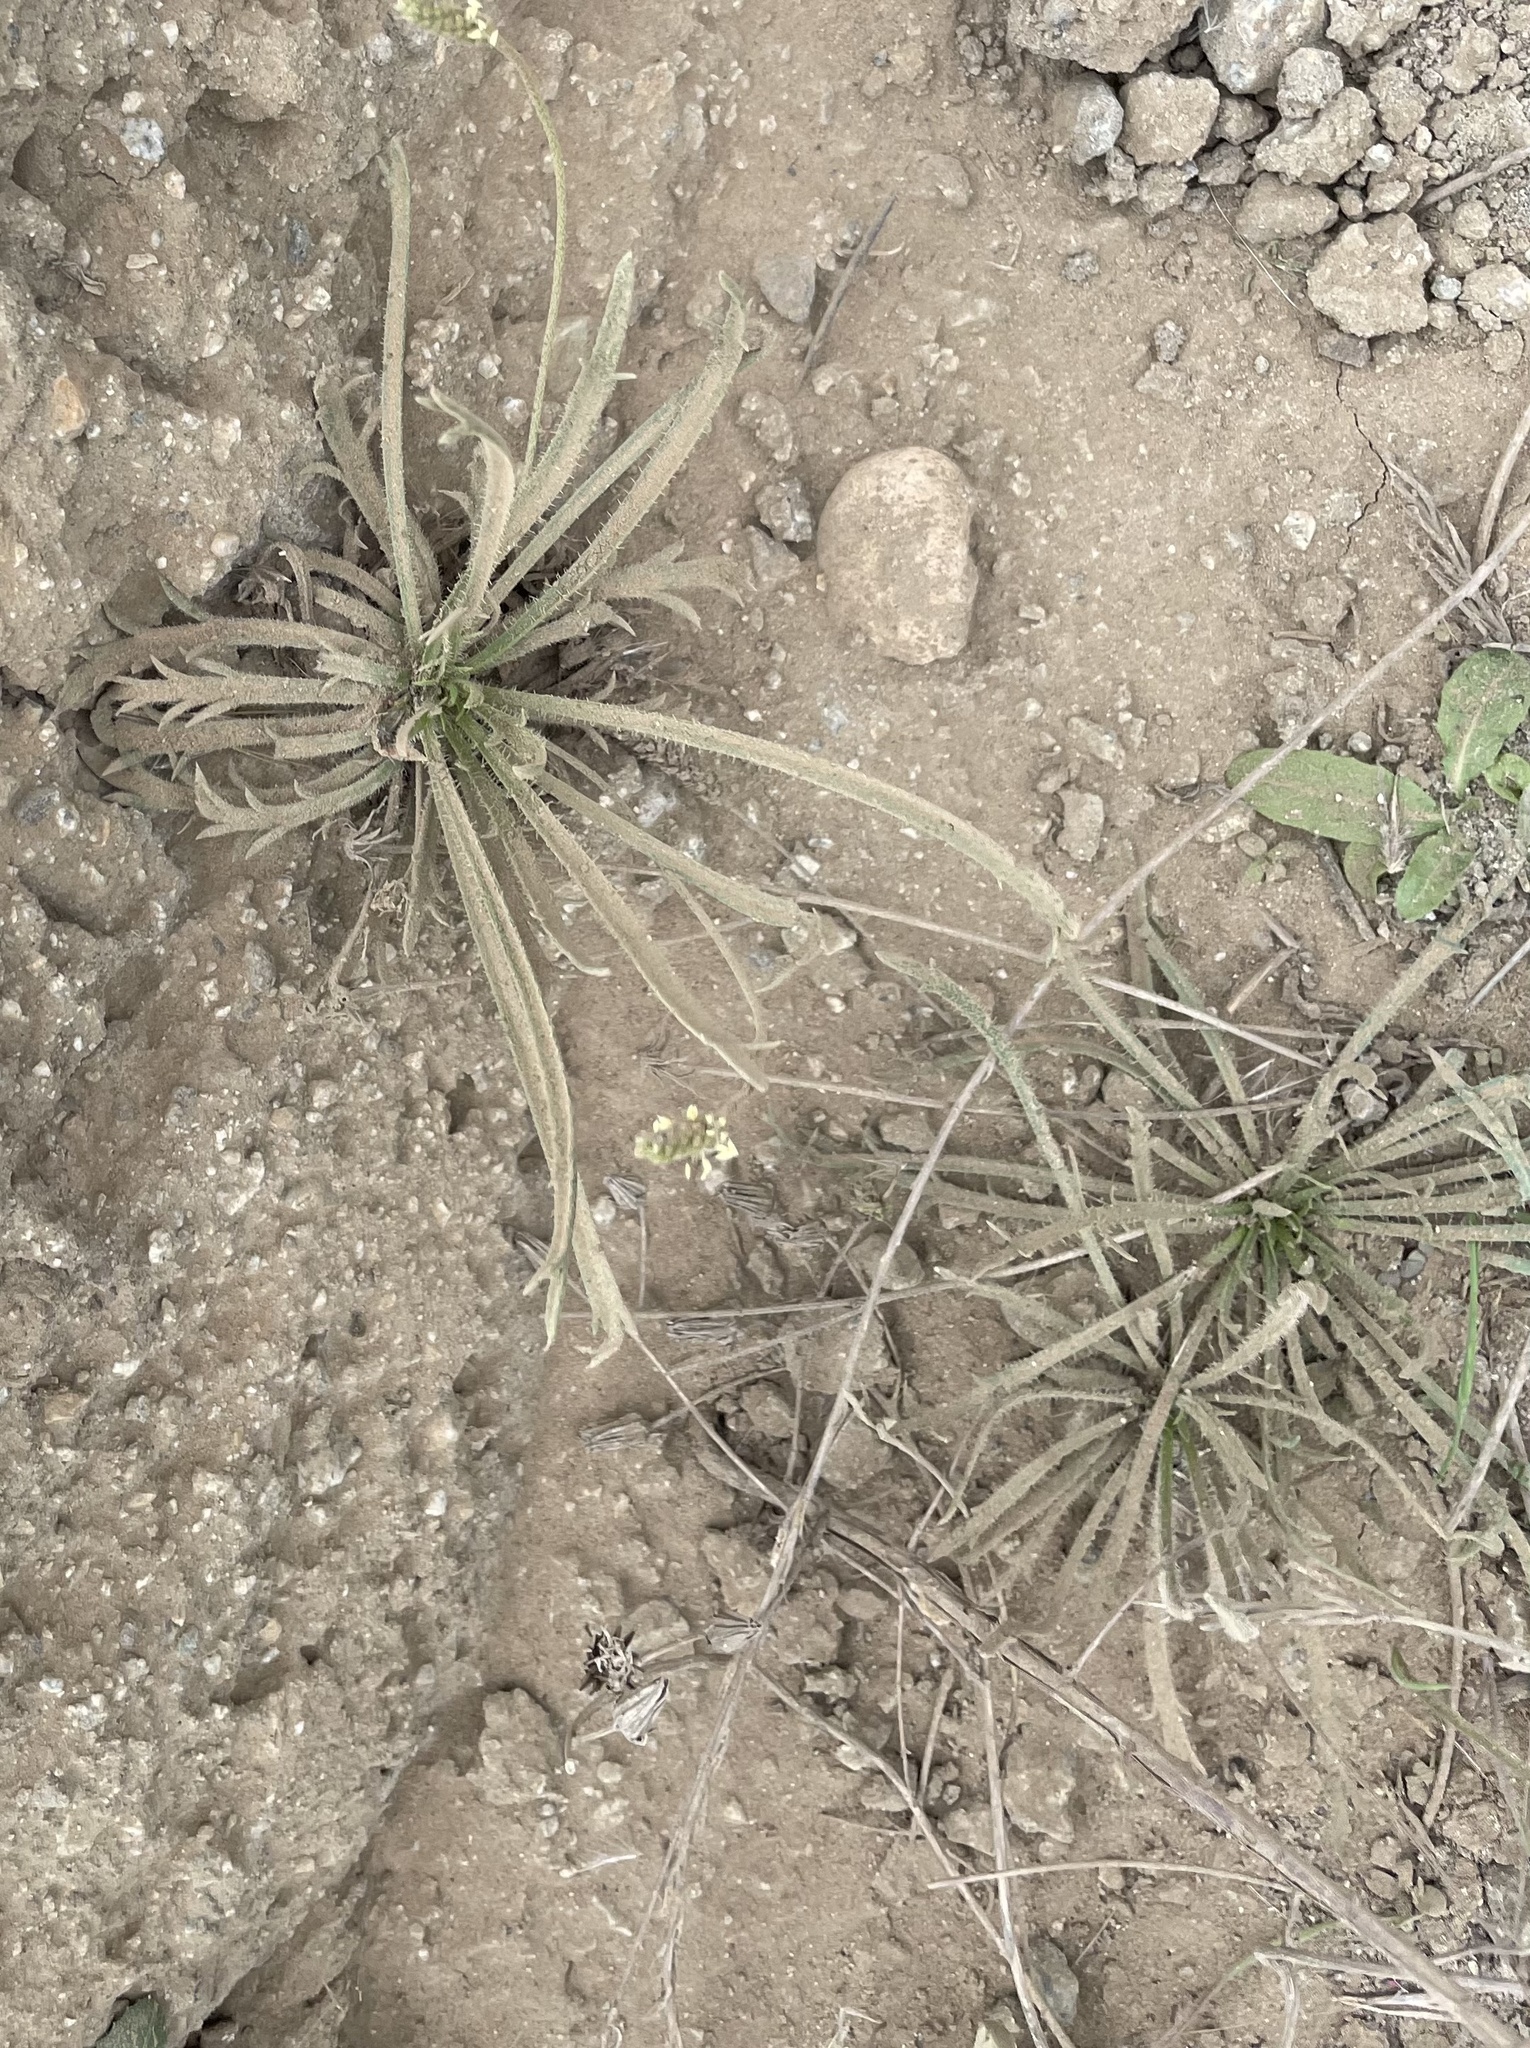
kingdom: Plantae
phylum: Tracheophyta
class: Magnoliopsida
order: Lamiales
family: Plantaginaceae
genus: Plantago
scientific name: Plantago coronopus
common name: Buck's-horn plantain
